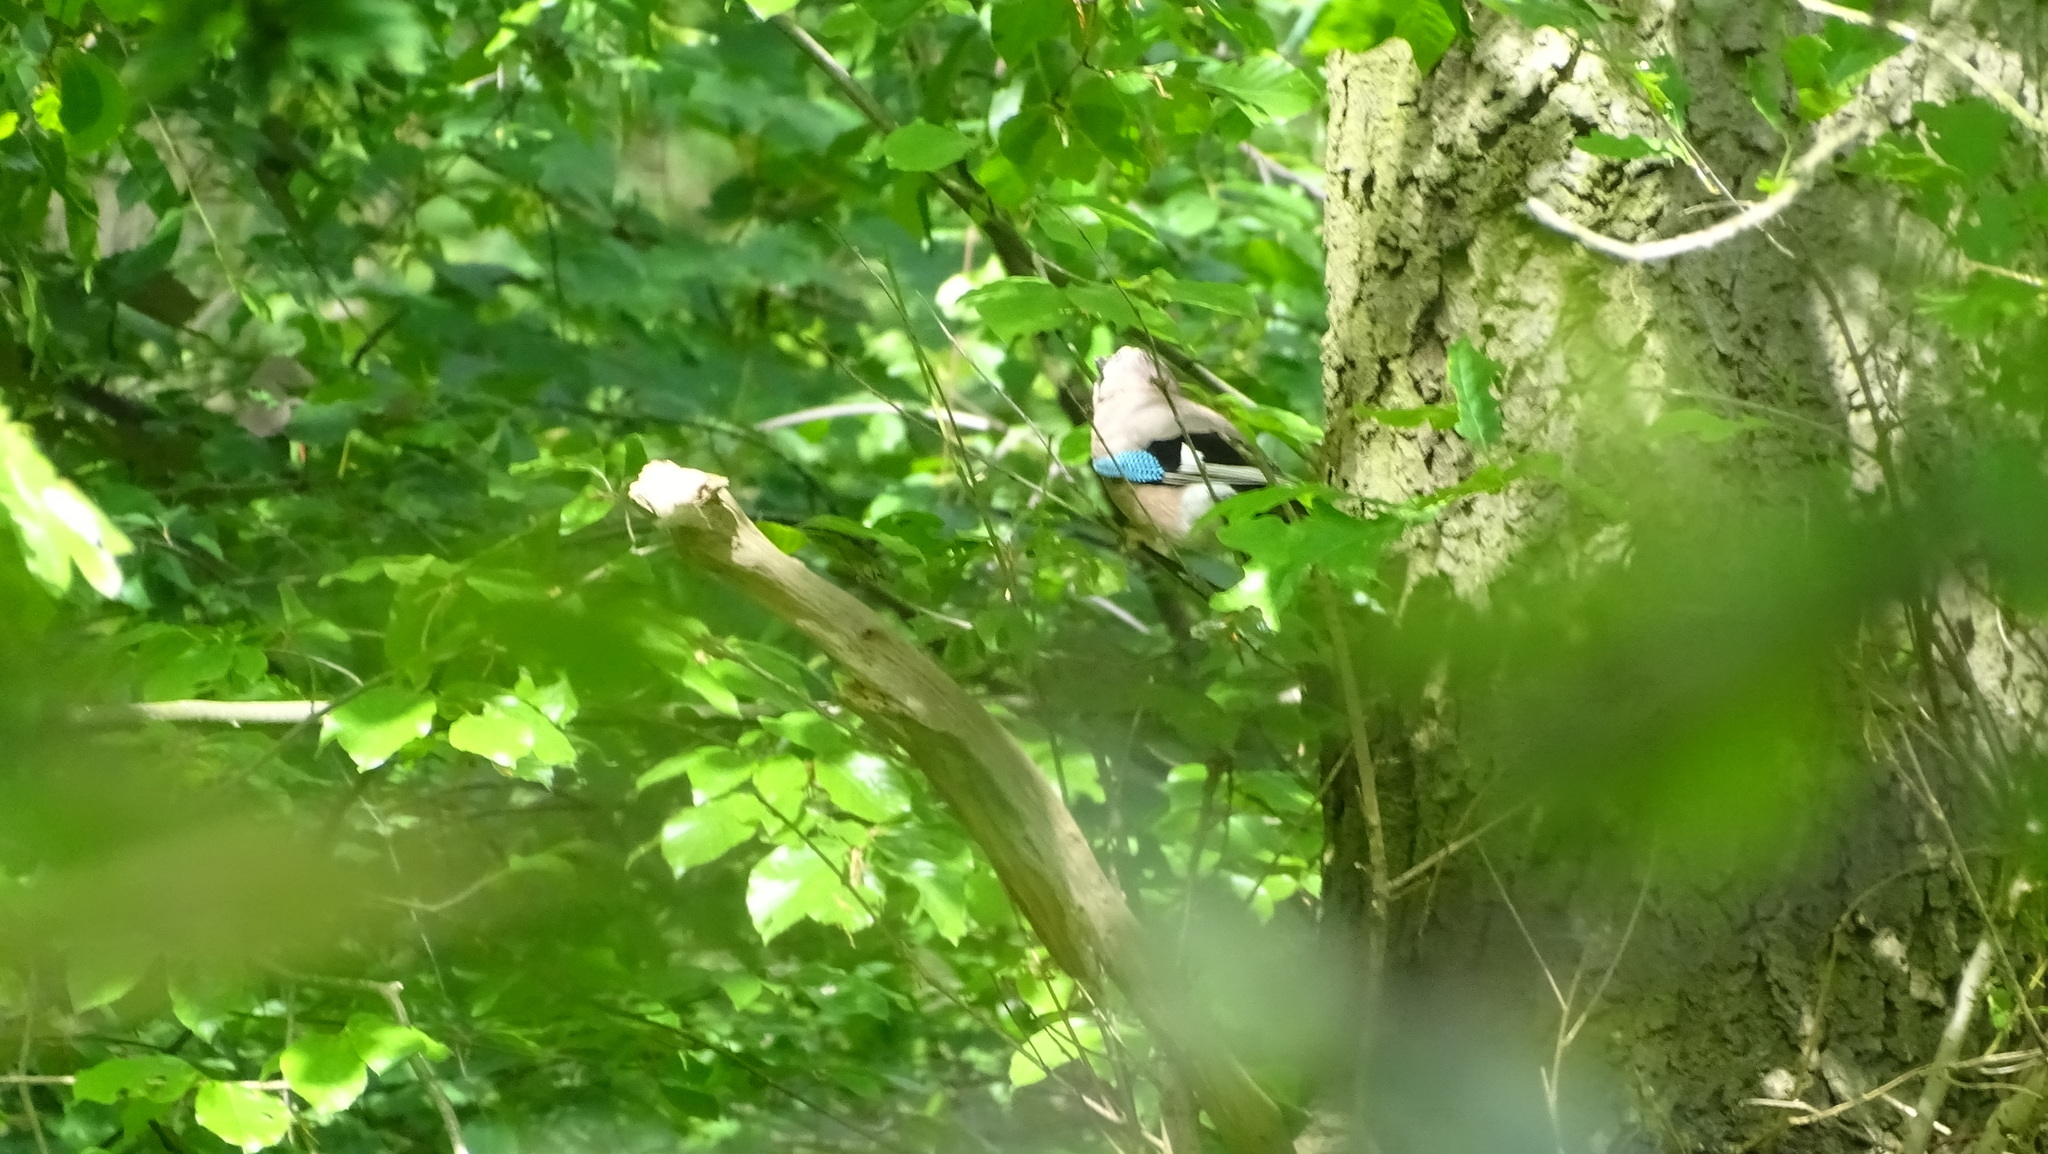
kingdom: Animalia
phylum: Chordata
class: Aves
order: Passeriformes
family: Corvidae
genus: Garrulus
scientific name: Garrulus glandarius
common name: Eurasian jay
